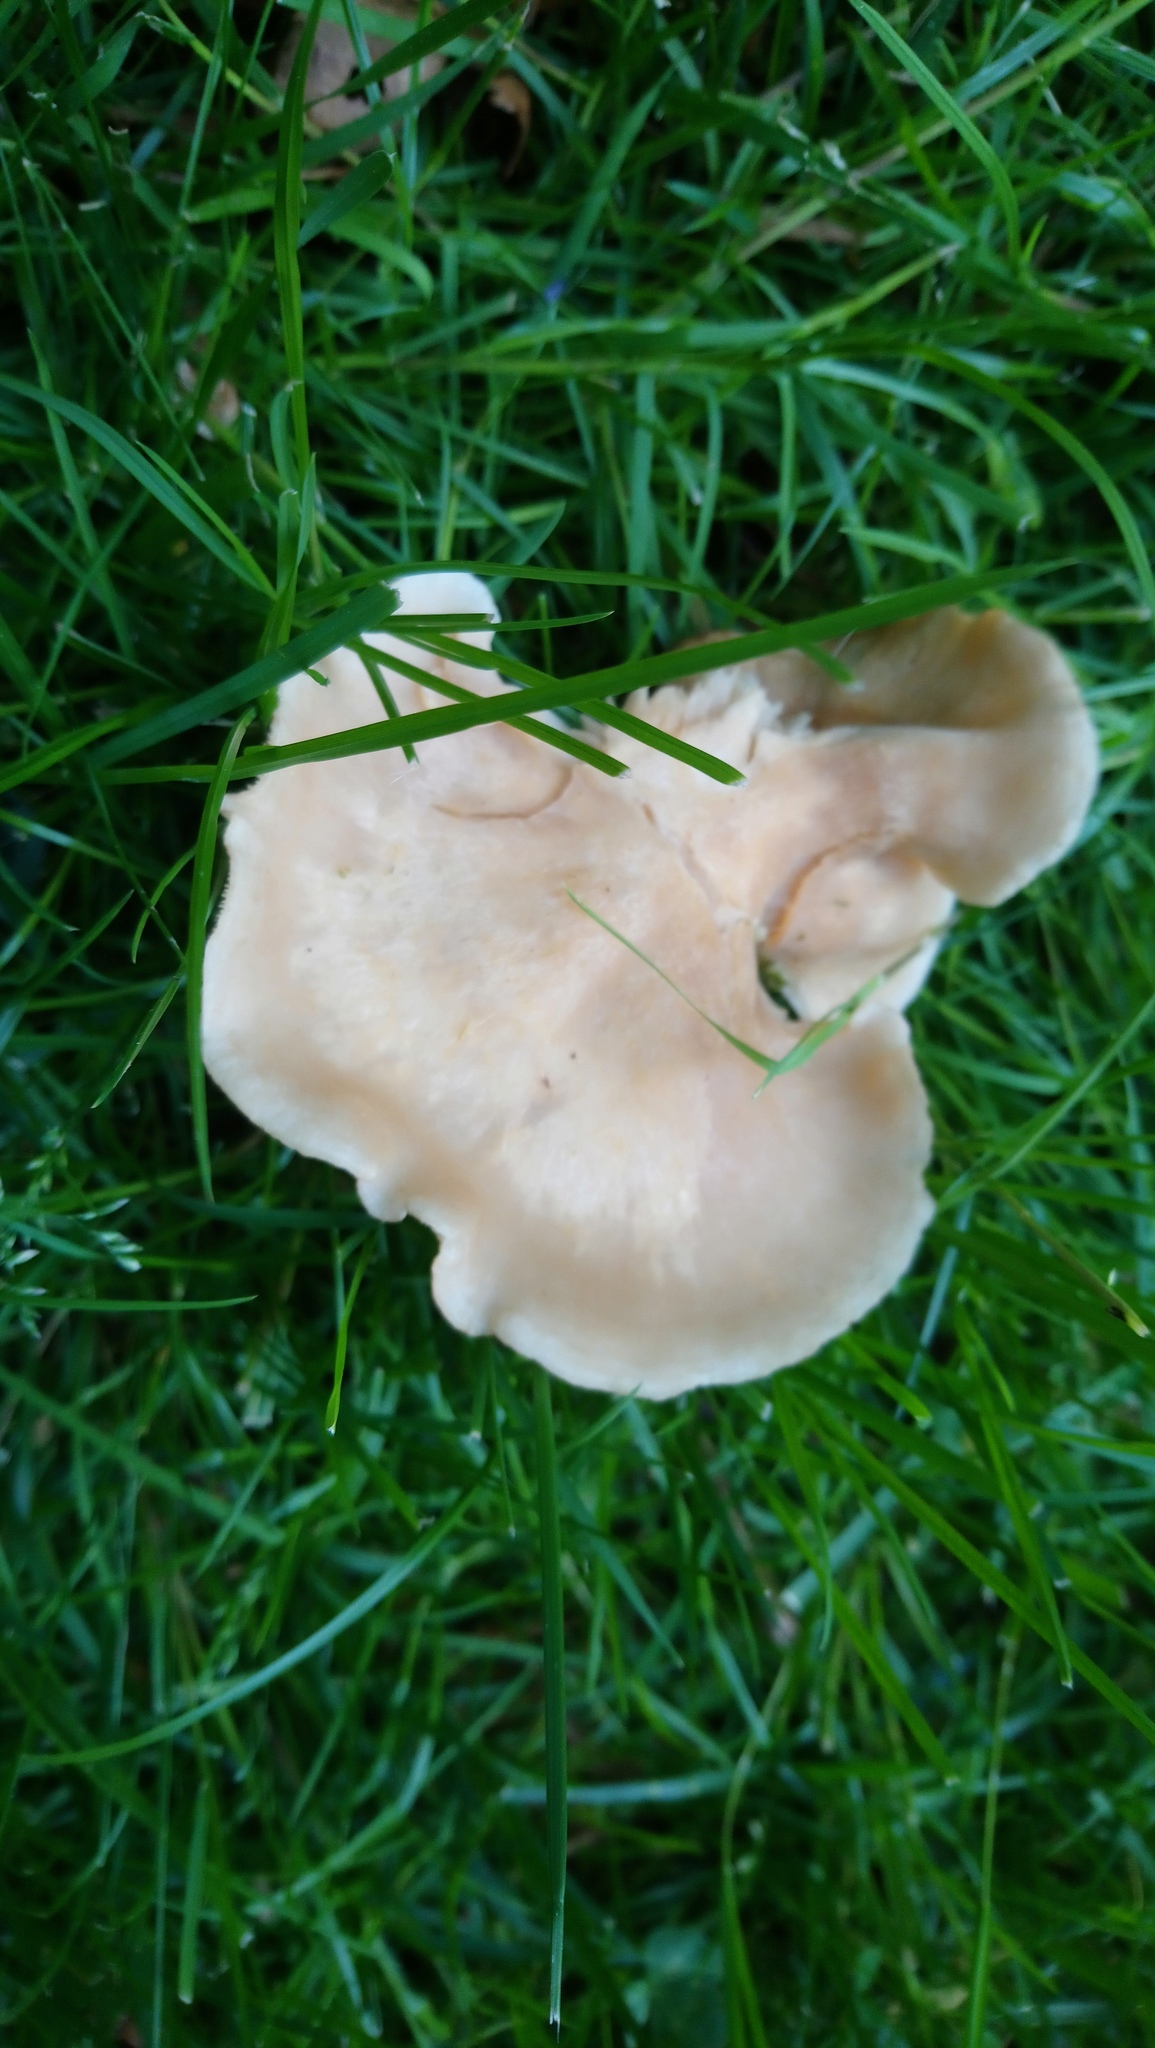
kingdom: Fungi
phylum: Basidiomycota
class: Agaricomycetes
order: Agaricales
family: Pleurotaceae
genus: Hohenbuehelia
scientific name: Hohenbuehelia petaloides
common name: Shoehorn oyster
